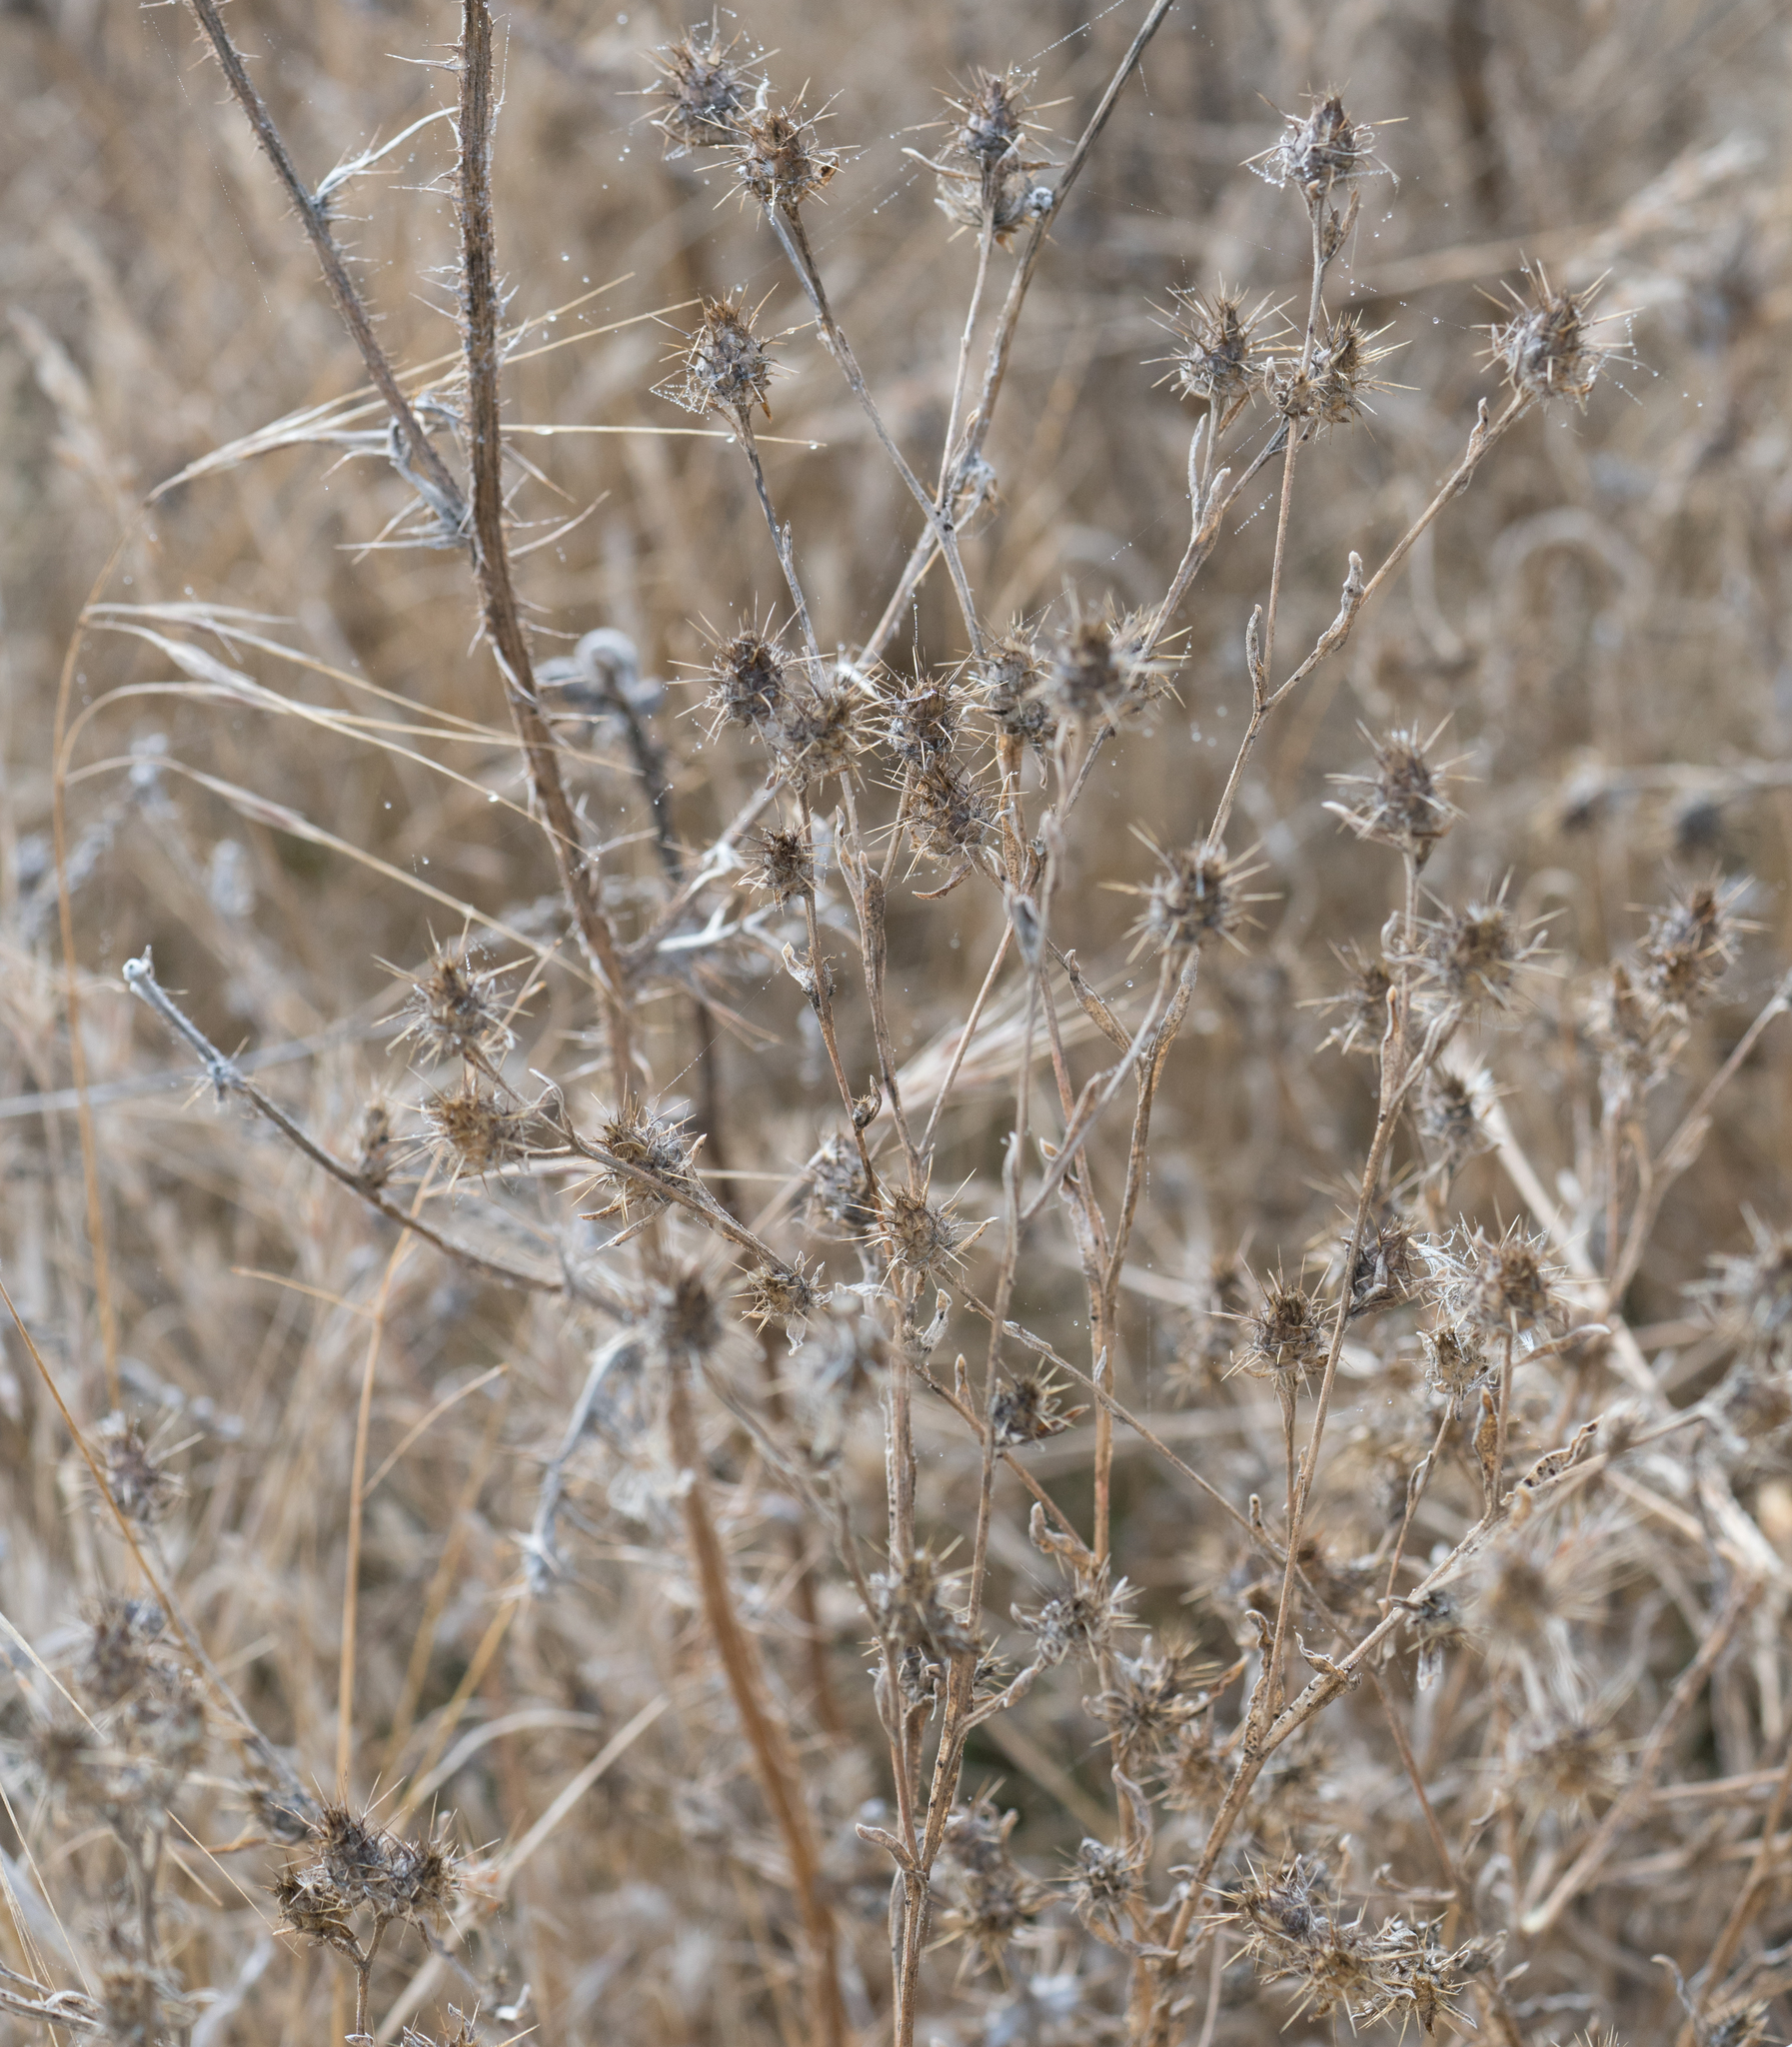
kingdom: Plantae
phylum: Tracheophyta
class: Magnoliopsida
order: Asterales
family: Asteraceae
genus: Centaurea
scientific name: Centaurea melitensis
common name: Maltese star-thistle
